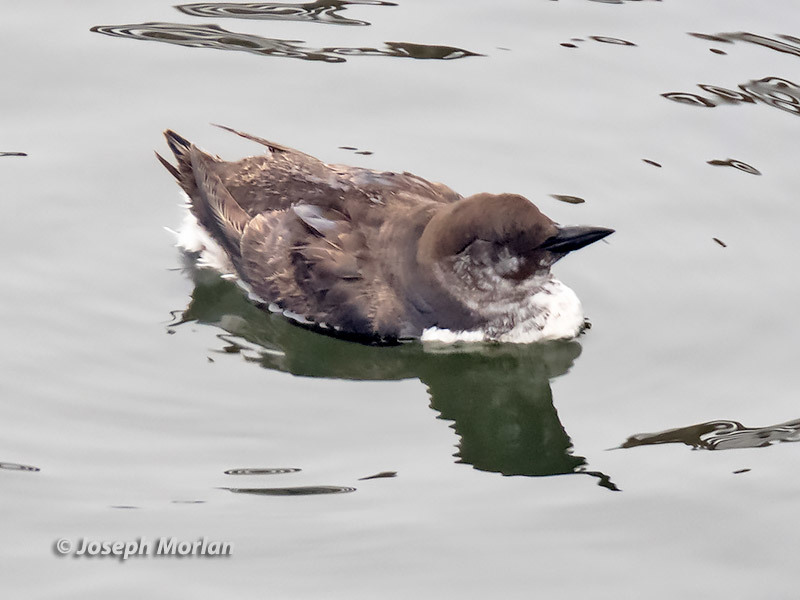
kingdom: Animalia
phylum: Chordata
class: Aves
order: Charadriiformes
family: Alcidae
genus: Uria
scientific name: Uria aalge
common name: Common murre
